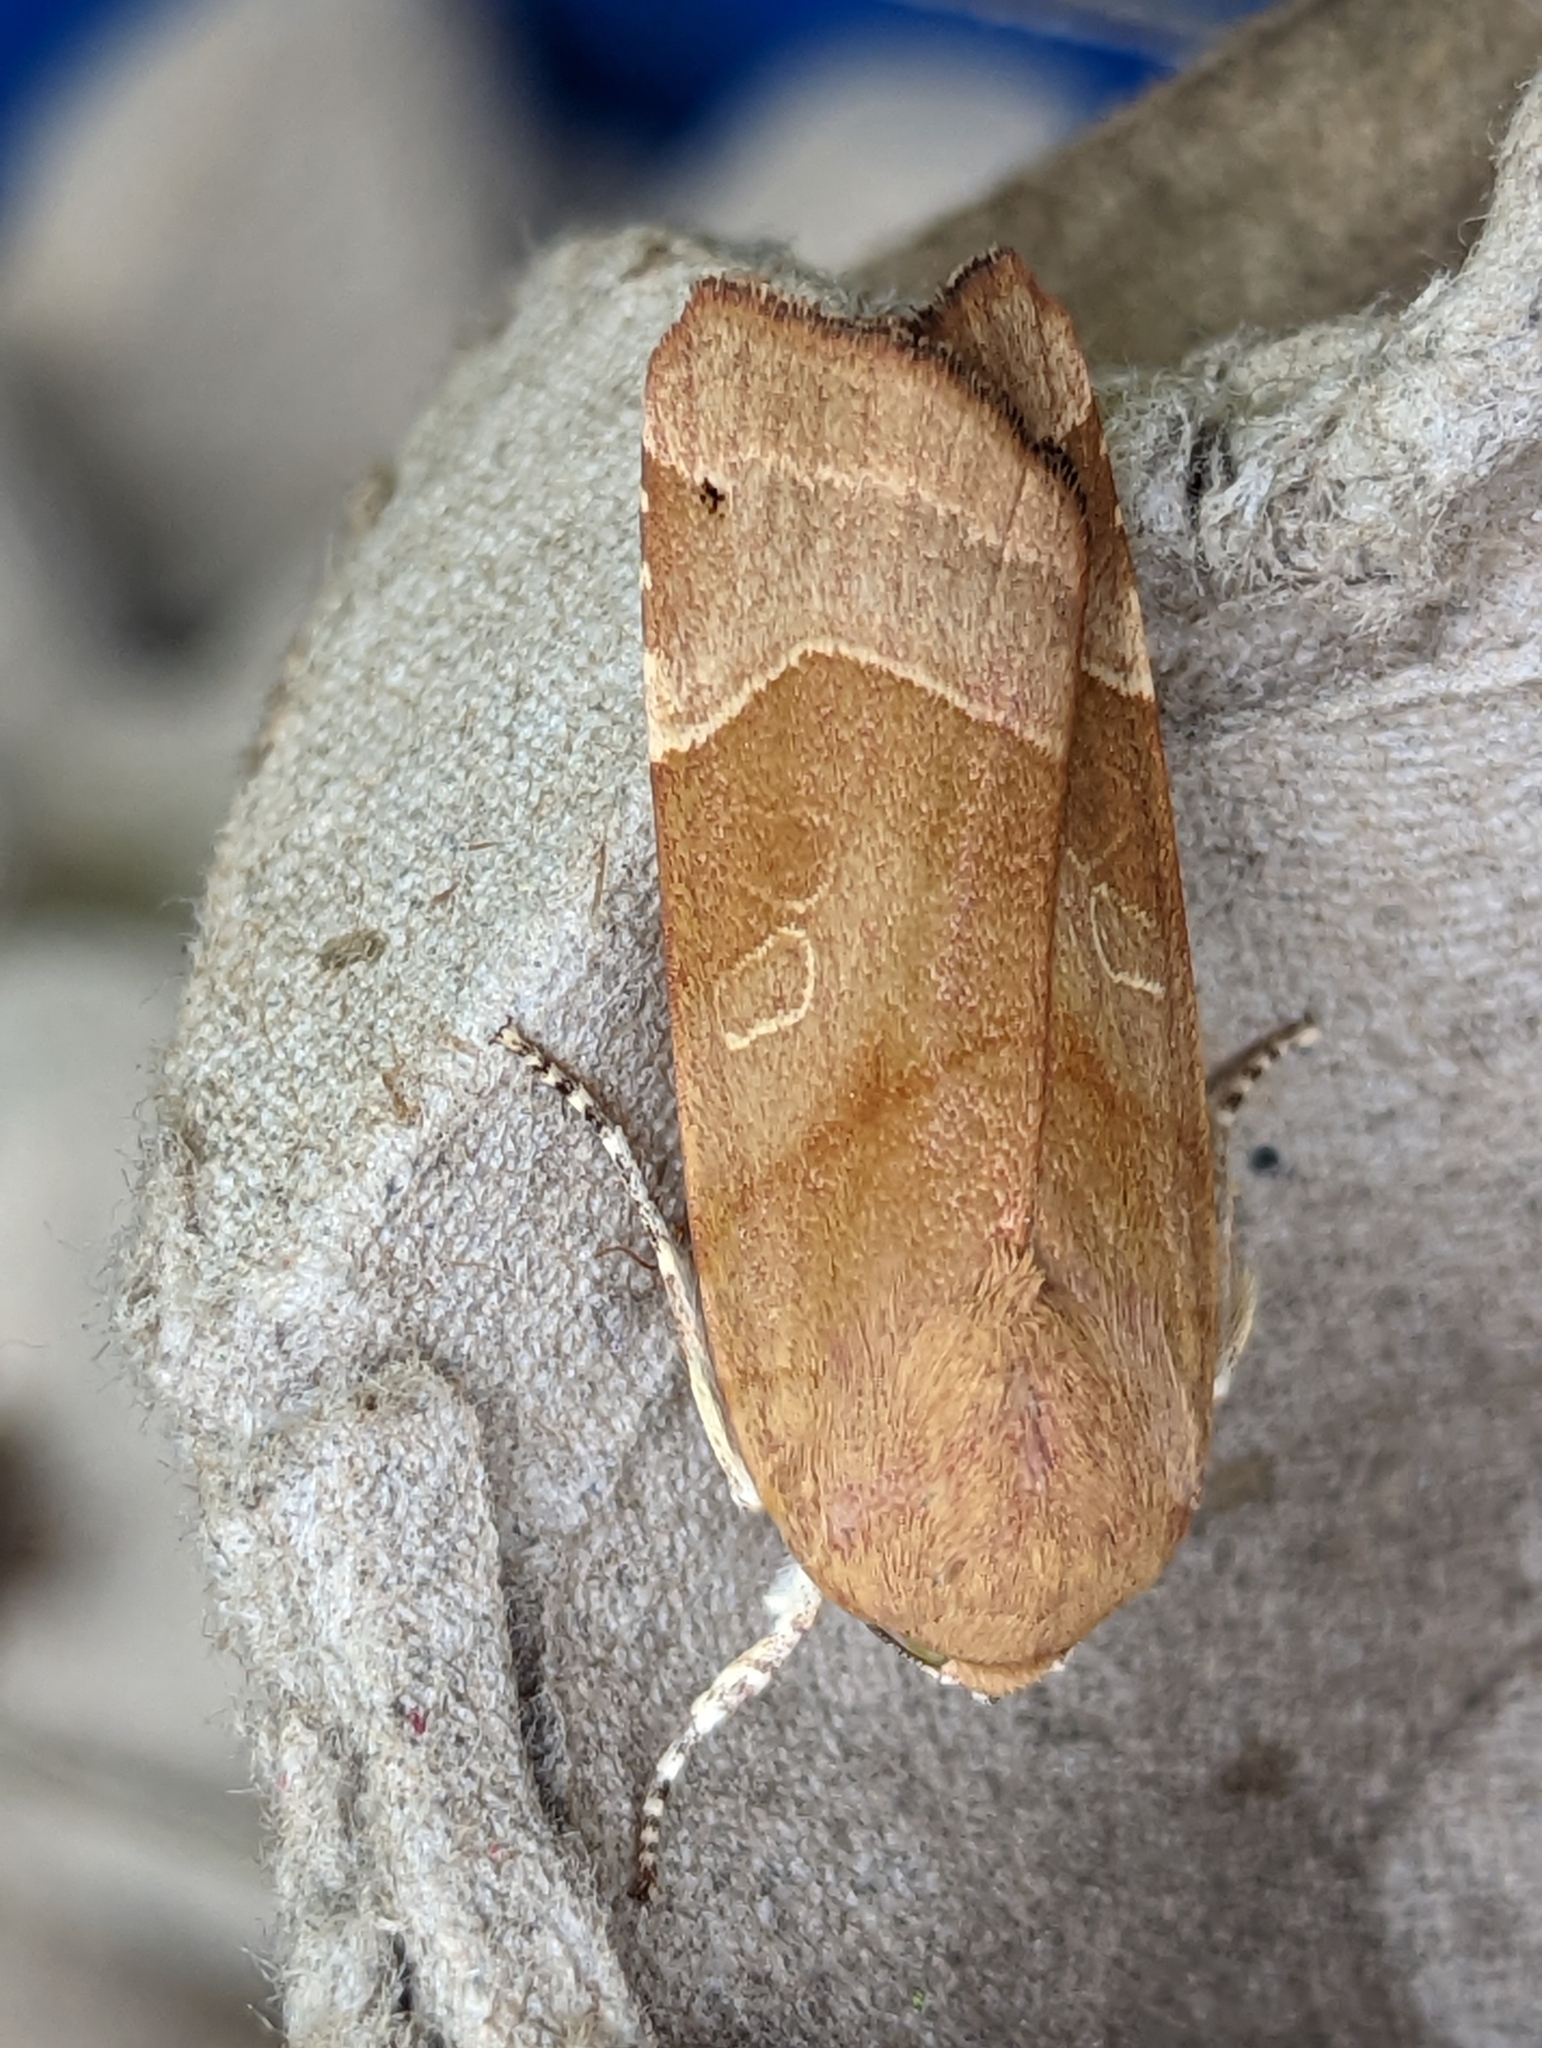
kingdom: Animalia
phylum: Arthropoda
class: Insecta
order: Lepidoptera
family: Noctuidae
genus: Noctua
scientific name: Noctua fimbriata
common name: Broad-bordered yellow underwing
